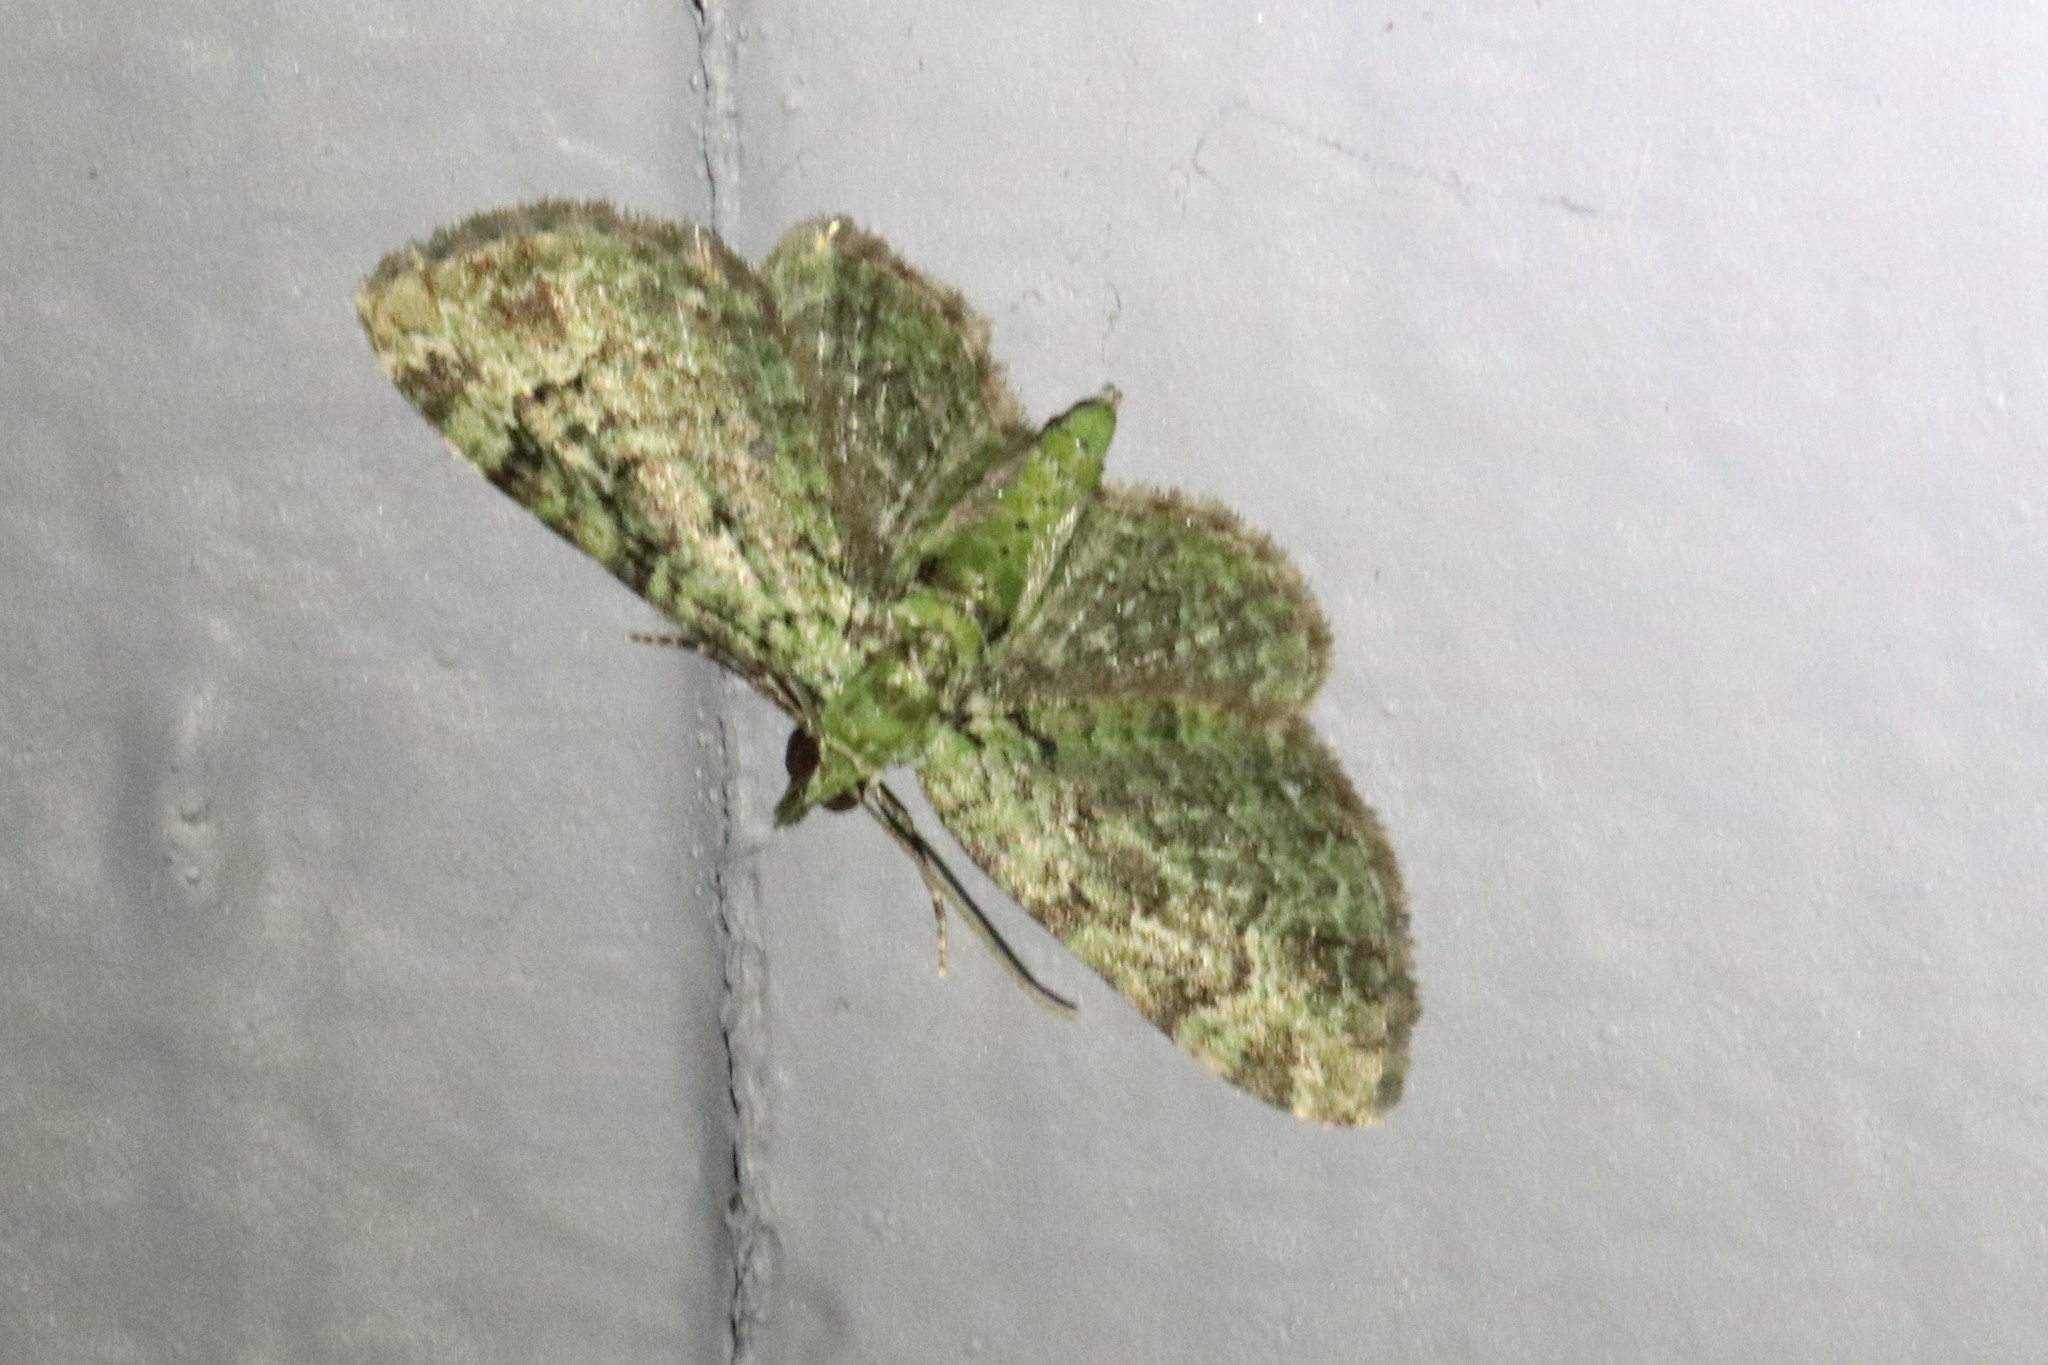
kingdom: Animalia
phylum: Arthropoda
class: Insecta
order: Lepidoptera
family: Geometridae
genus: Pasiphila
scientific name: Pasiphila rectangulata
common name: Green pug
